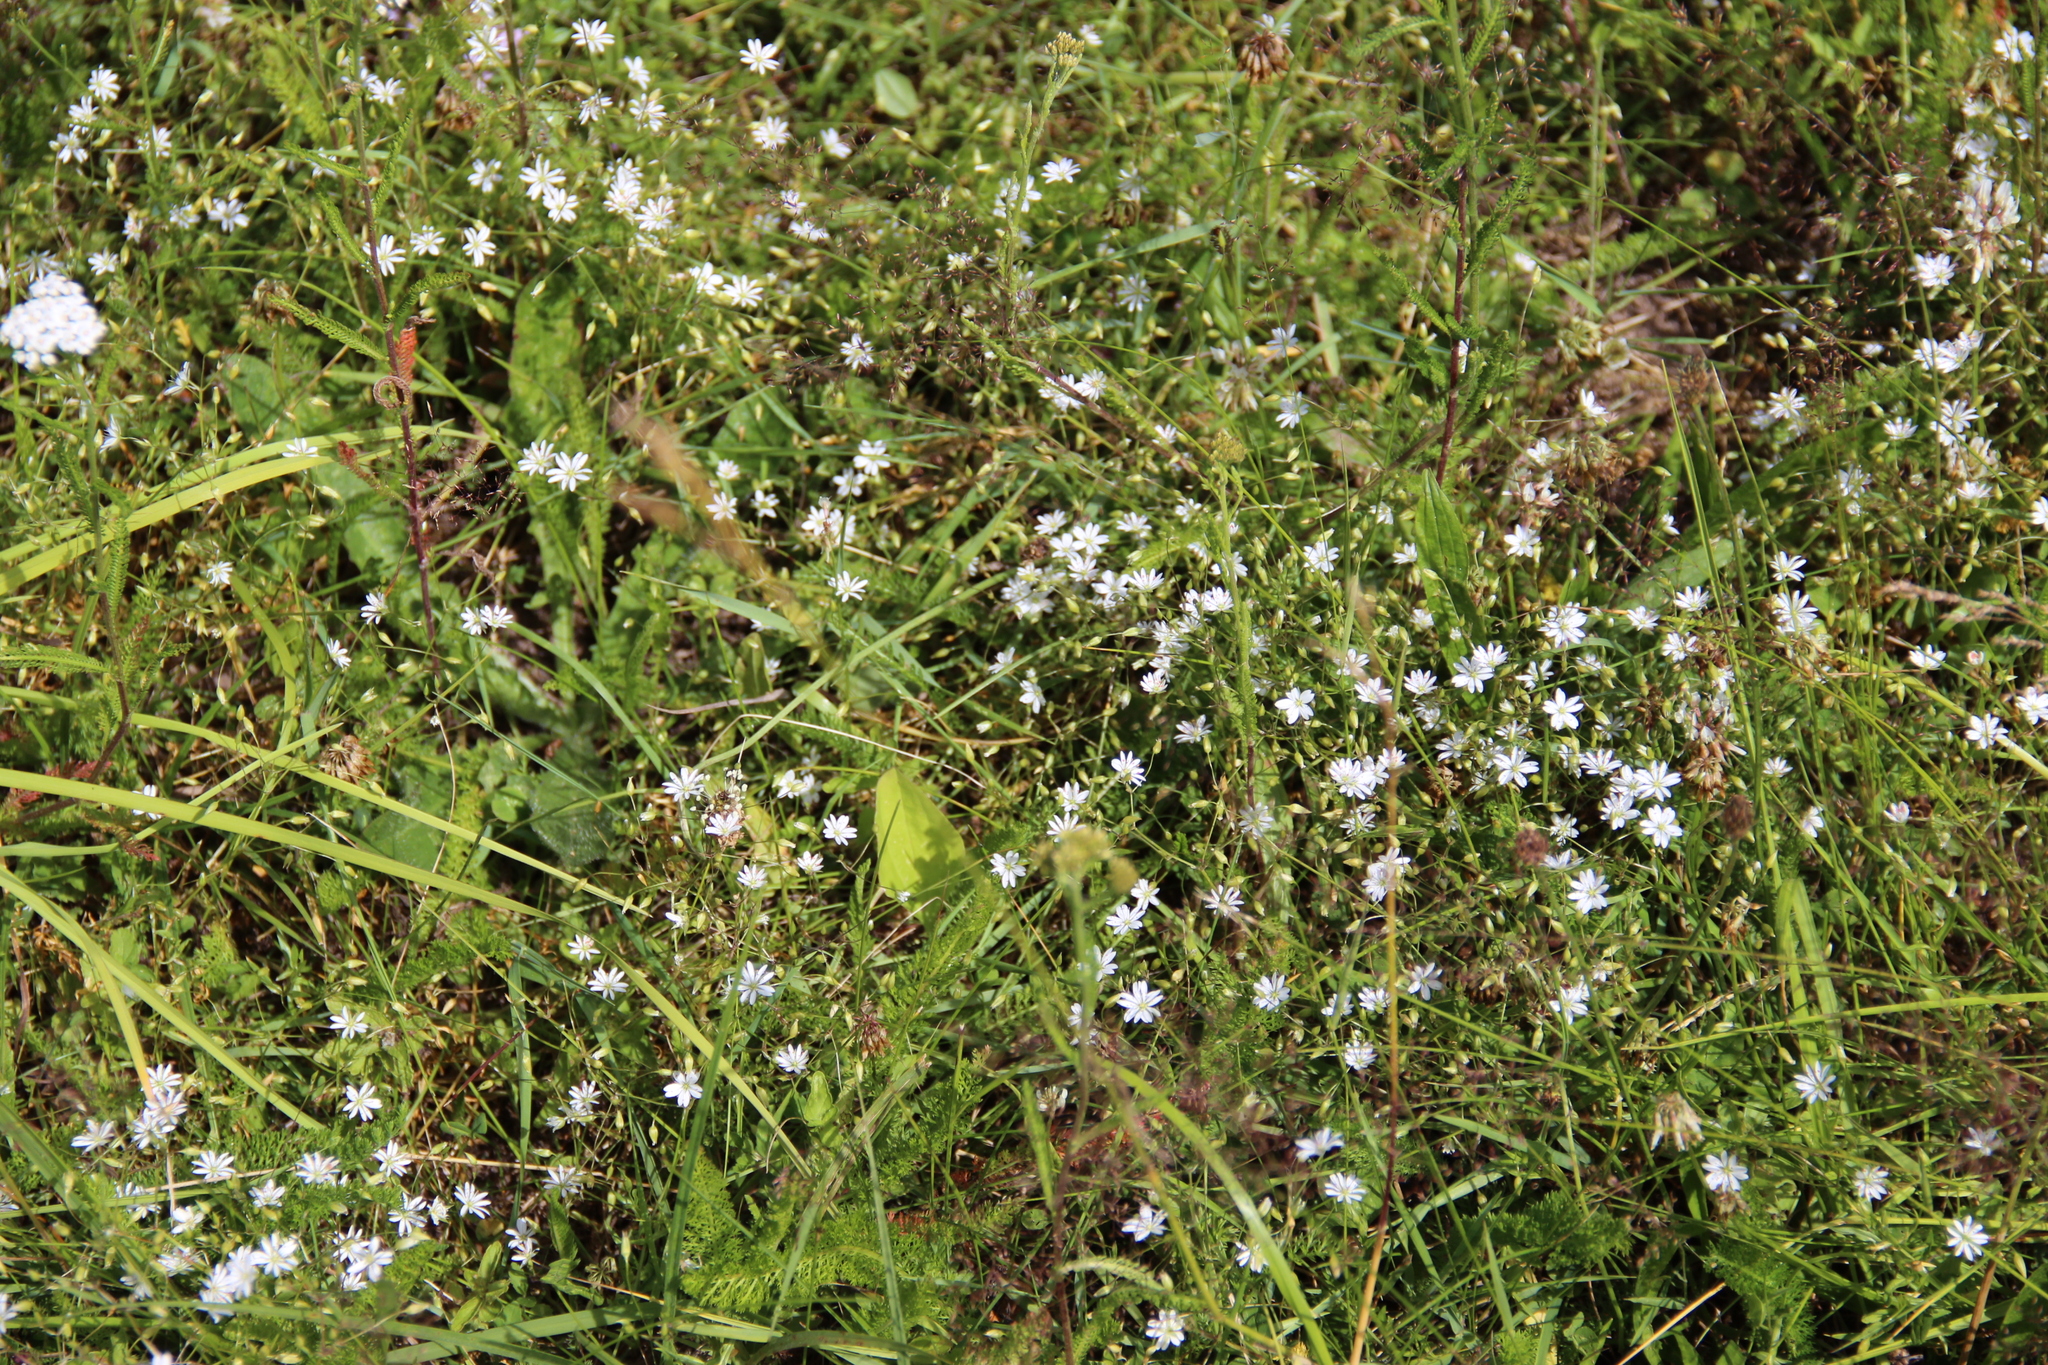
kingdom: Plantae
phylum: Tracheophyta
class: Magnoliopsida
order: Caryophyllales
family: Caryophyllaceae
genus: Stellaria
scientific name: Stellaria graminea
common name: Grass-like starwort
